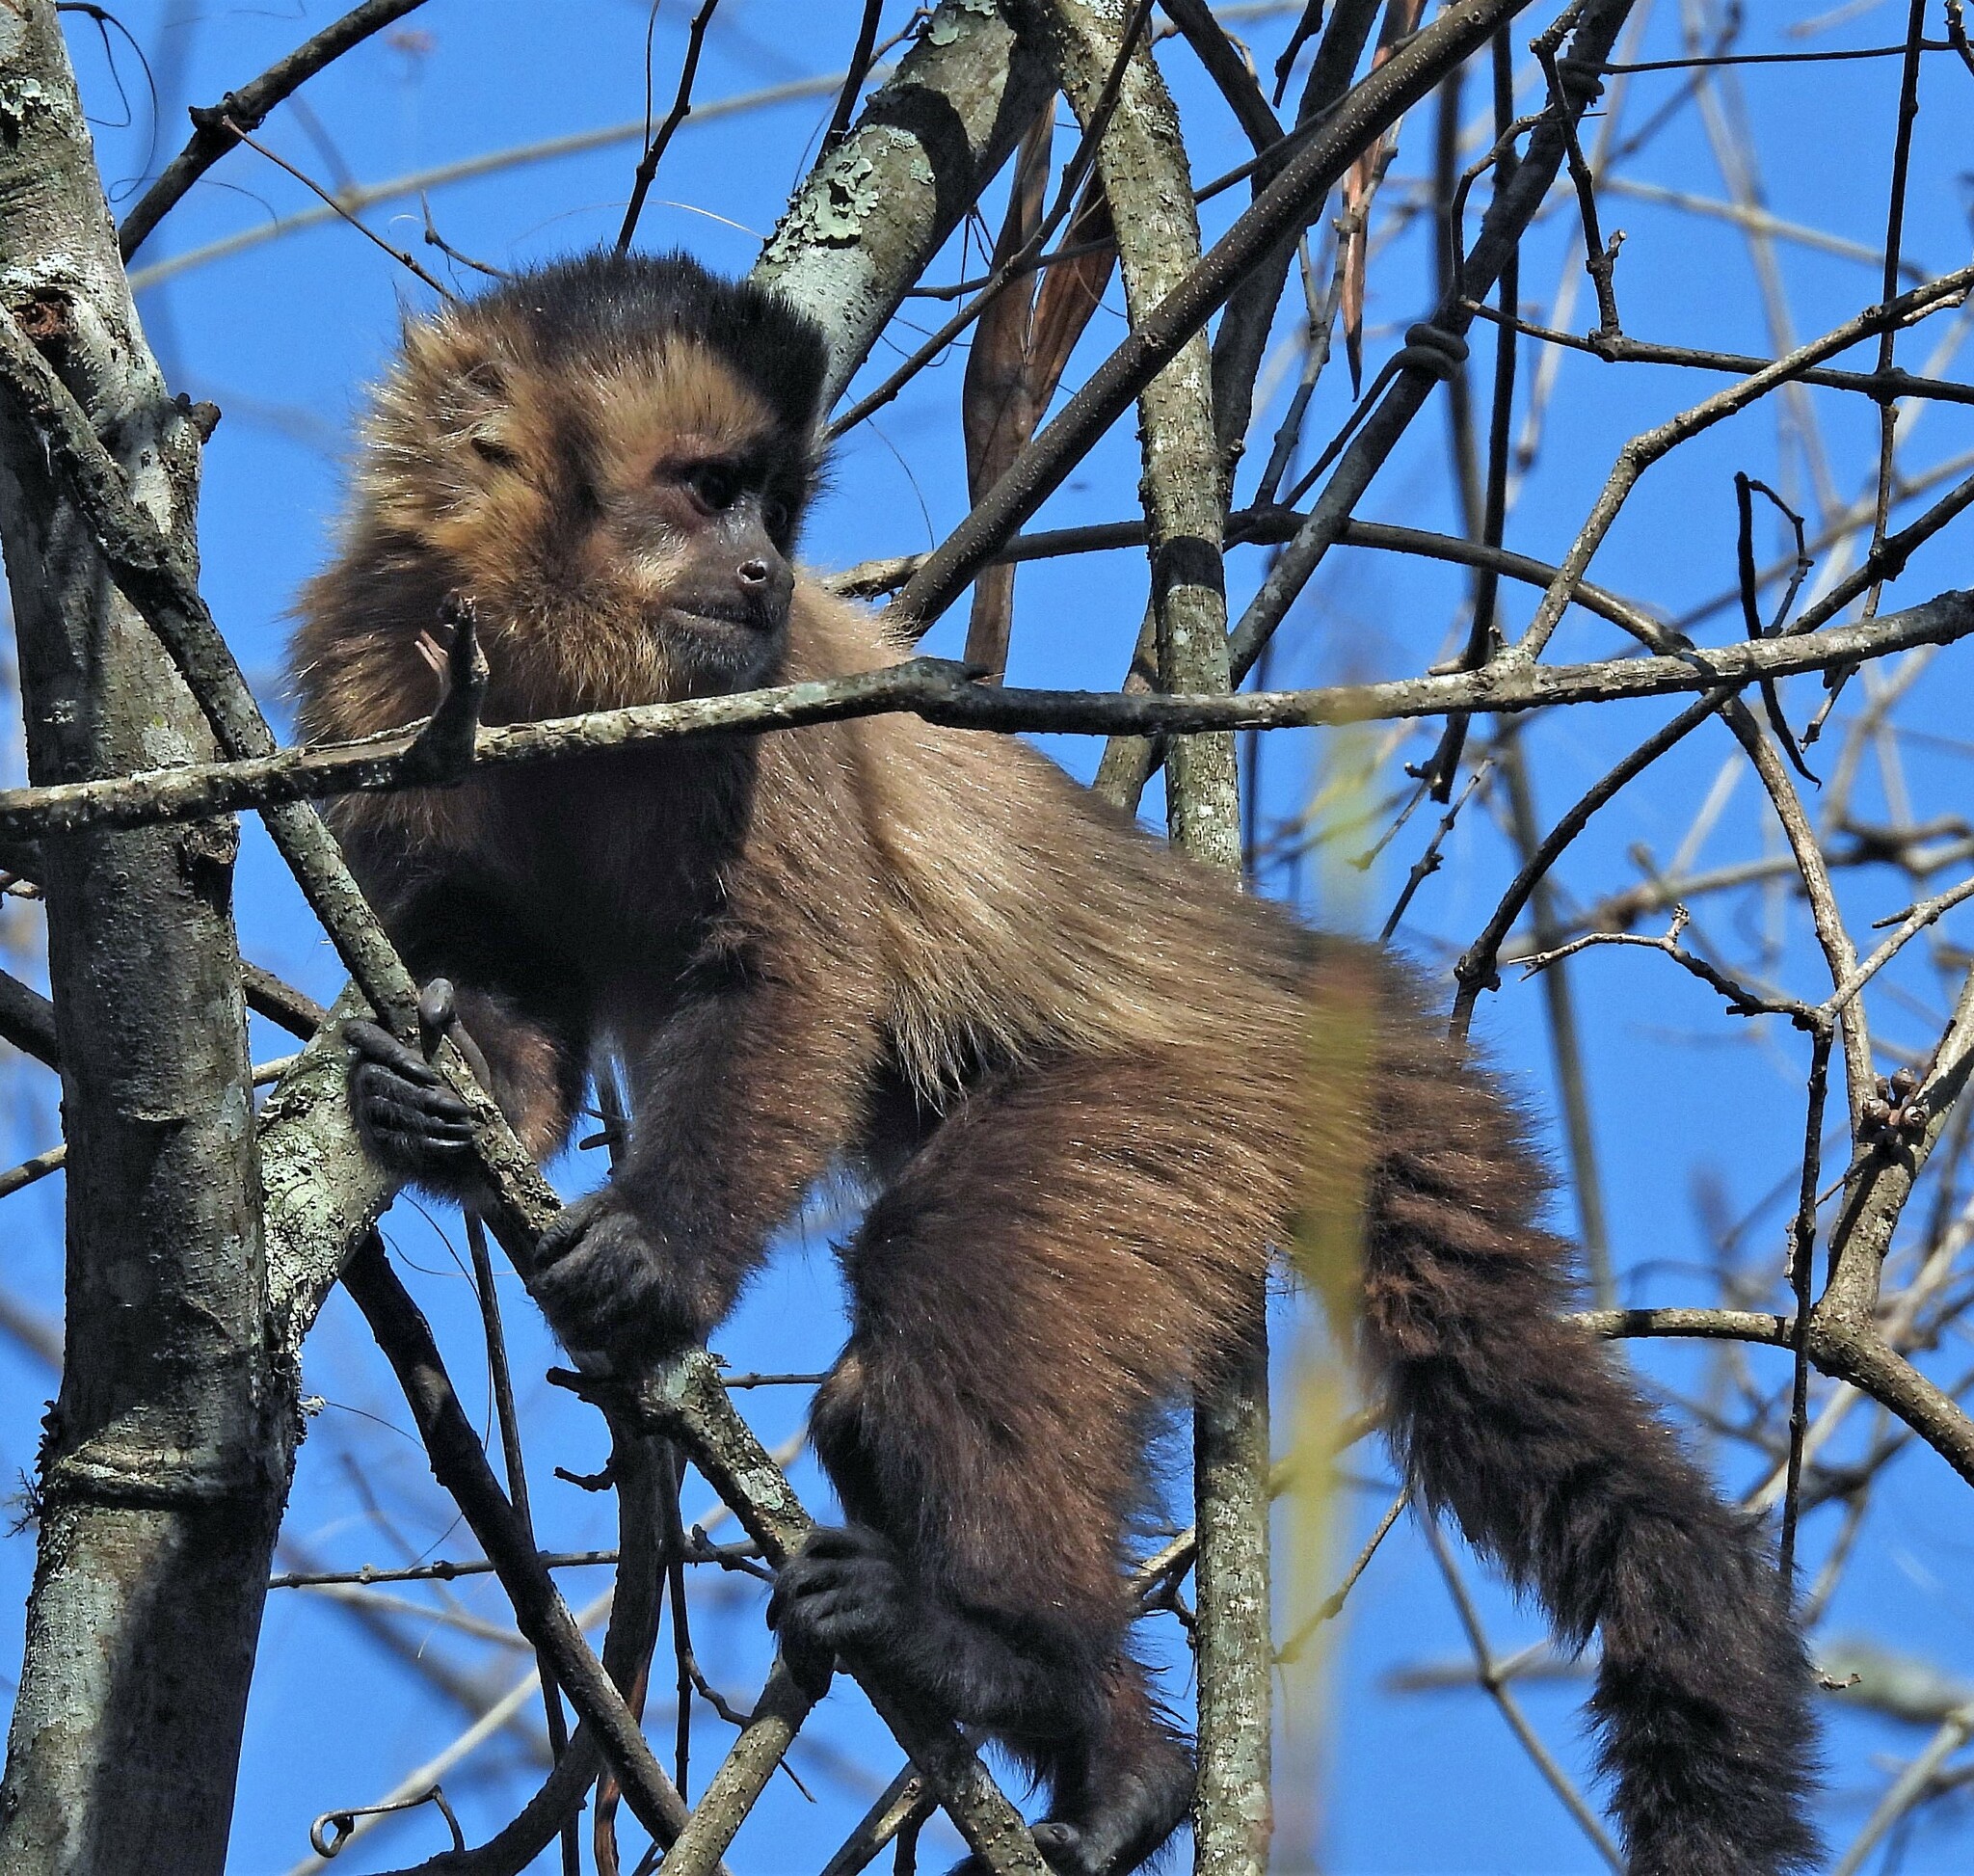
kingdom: Animalia
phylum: Chordata
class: Mammalia
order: Primates
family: Cebidae
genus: Sapajus
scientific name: Sapajus cay
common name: Hooded capuchin
